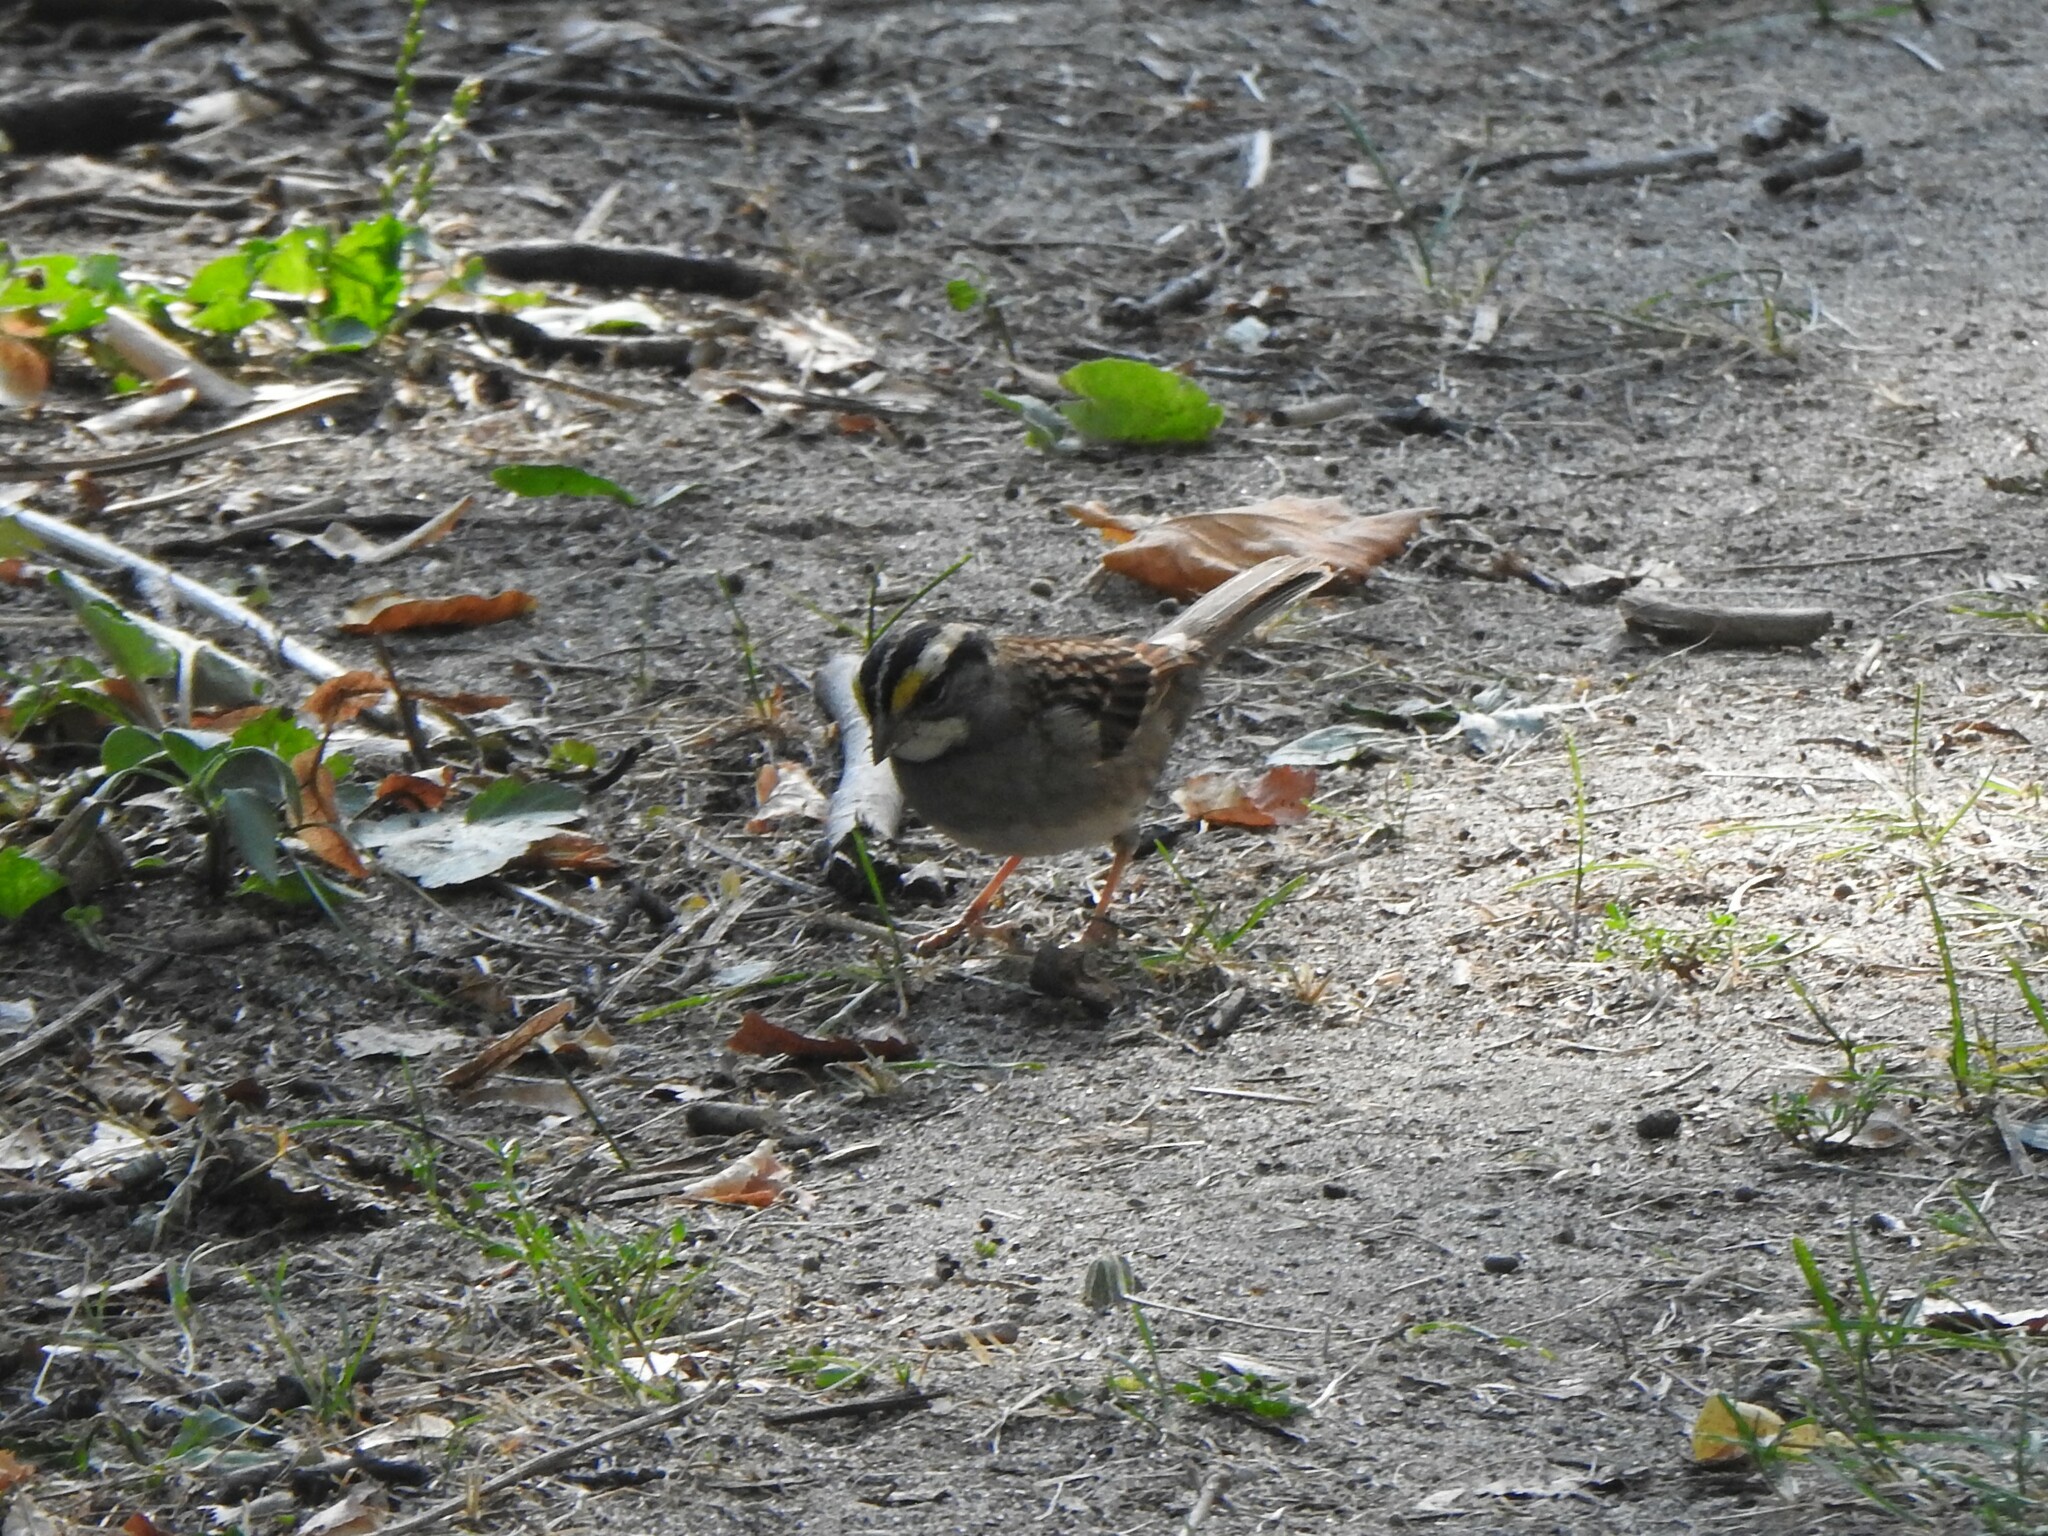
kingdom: Animalia
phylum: Chordata
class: Aves
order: Passeriformes
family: Passerellidae
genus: Zonotrichia
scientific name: Zonotrichia albicollis
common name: White-throated sparrow
